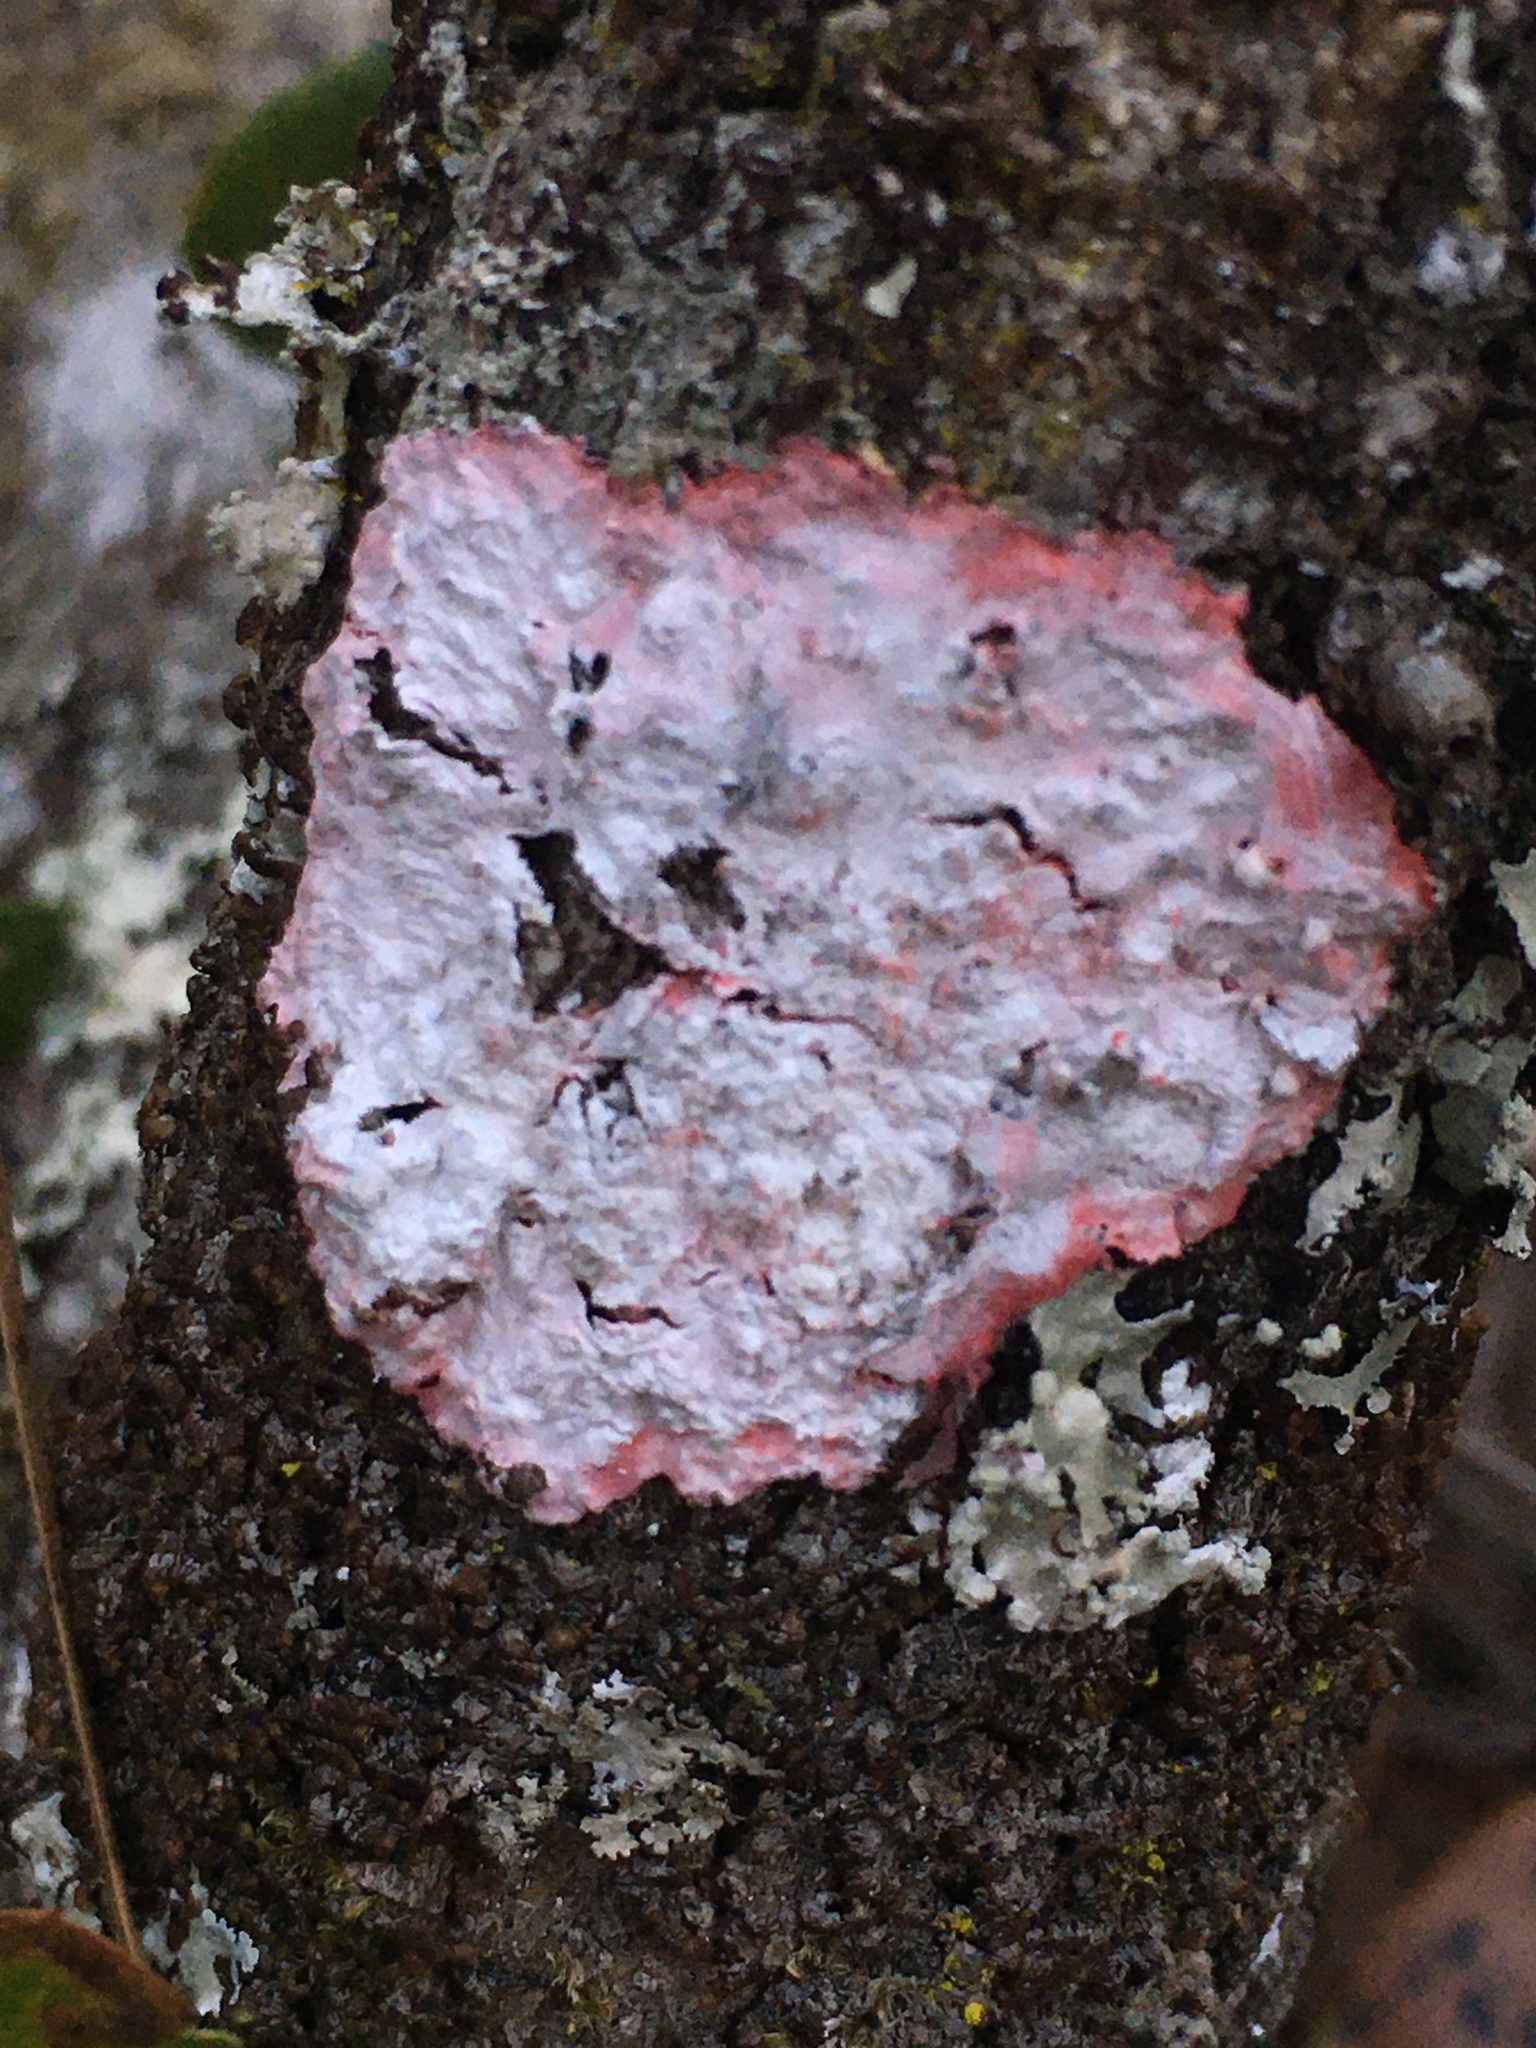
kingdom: Fungi
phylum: Ascomycota
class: Arthoniomycetes
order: Arthoniales
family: Arthoniaceae
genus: Herpothallon
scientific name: Herpothallon rubrocinctum
